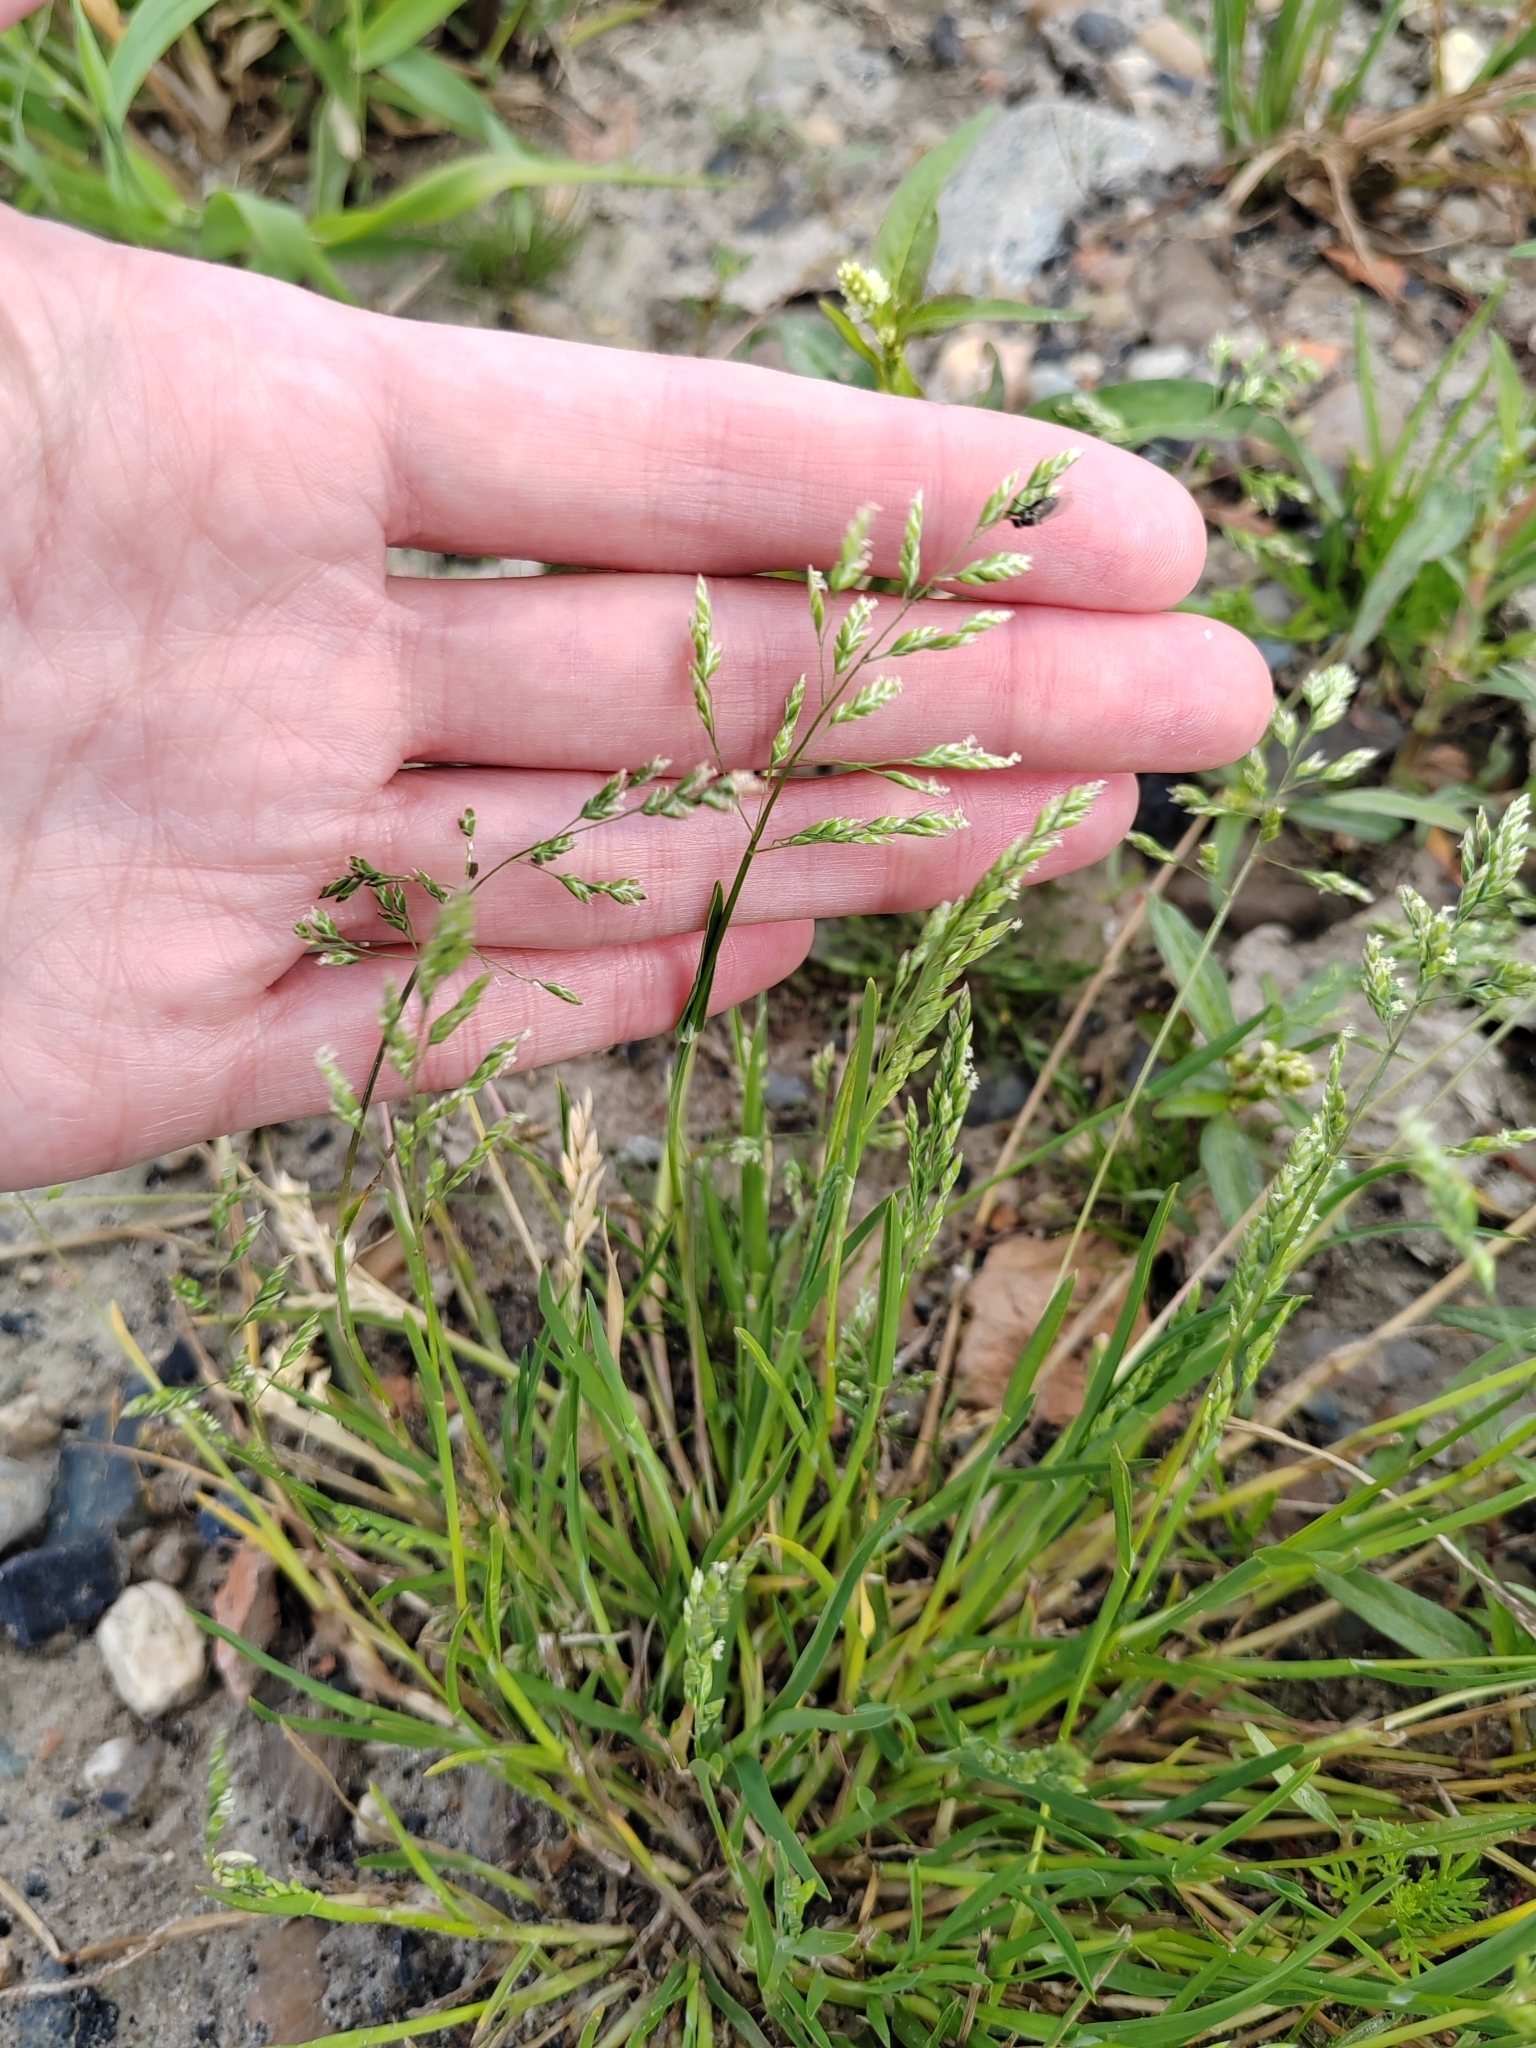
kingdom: Plantae
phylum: Tracheophyta
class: Liliopsida
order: Poales
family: Poaceae
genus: Poa
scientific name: Poa annua
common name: Annual bluegrass
